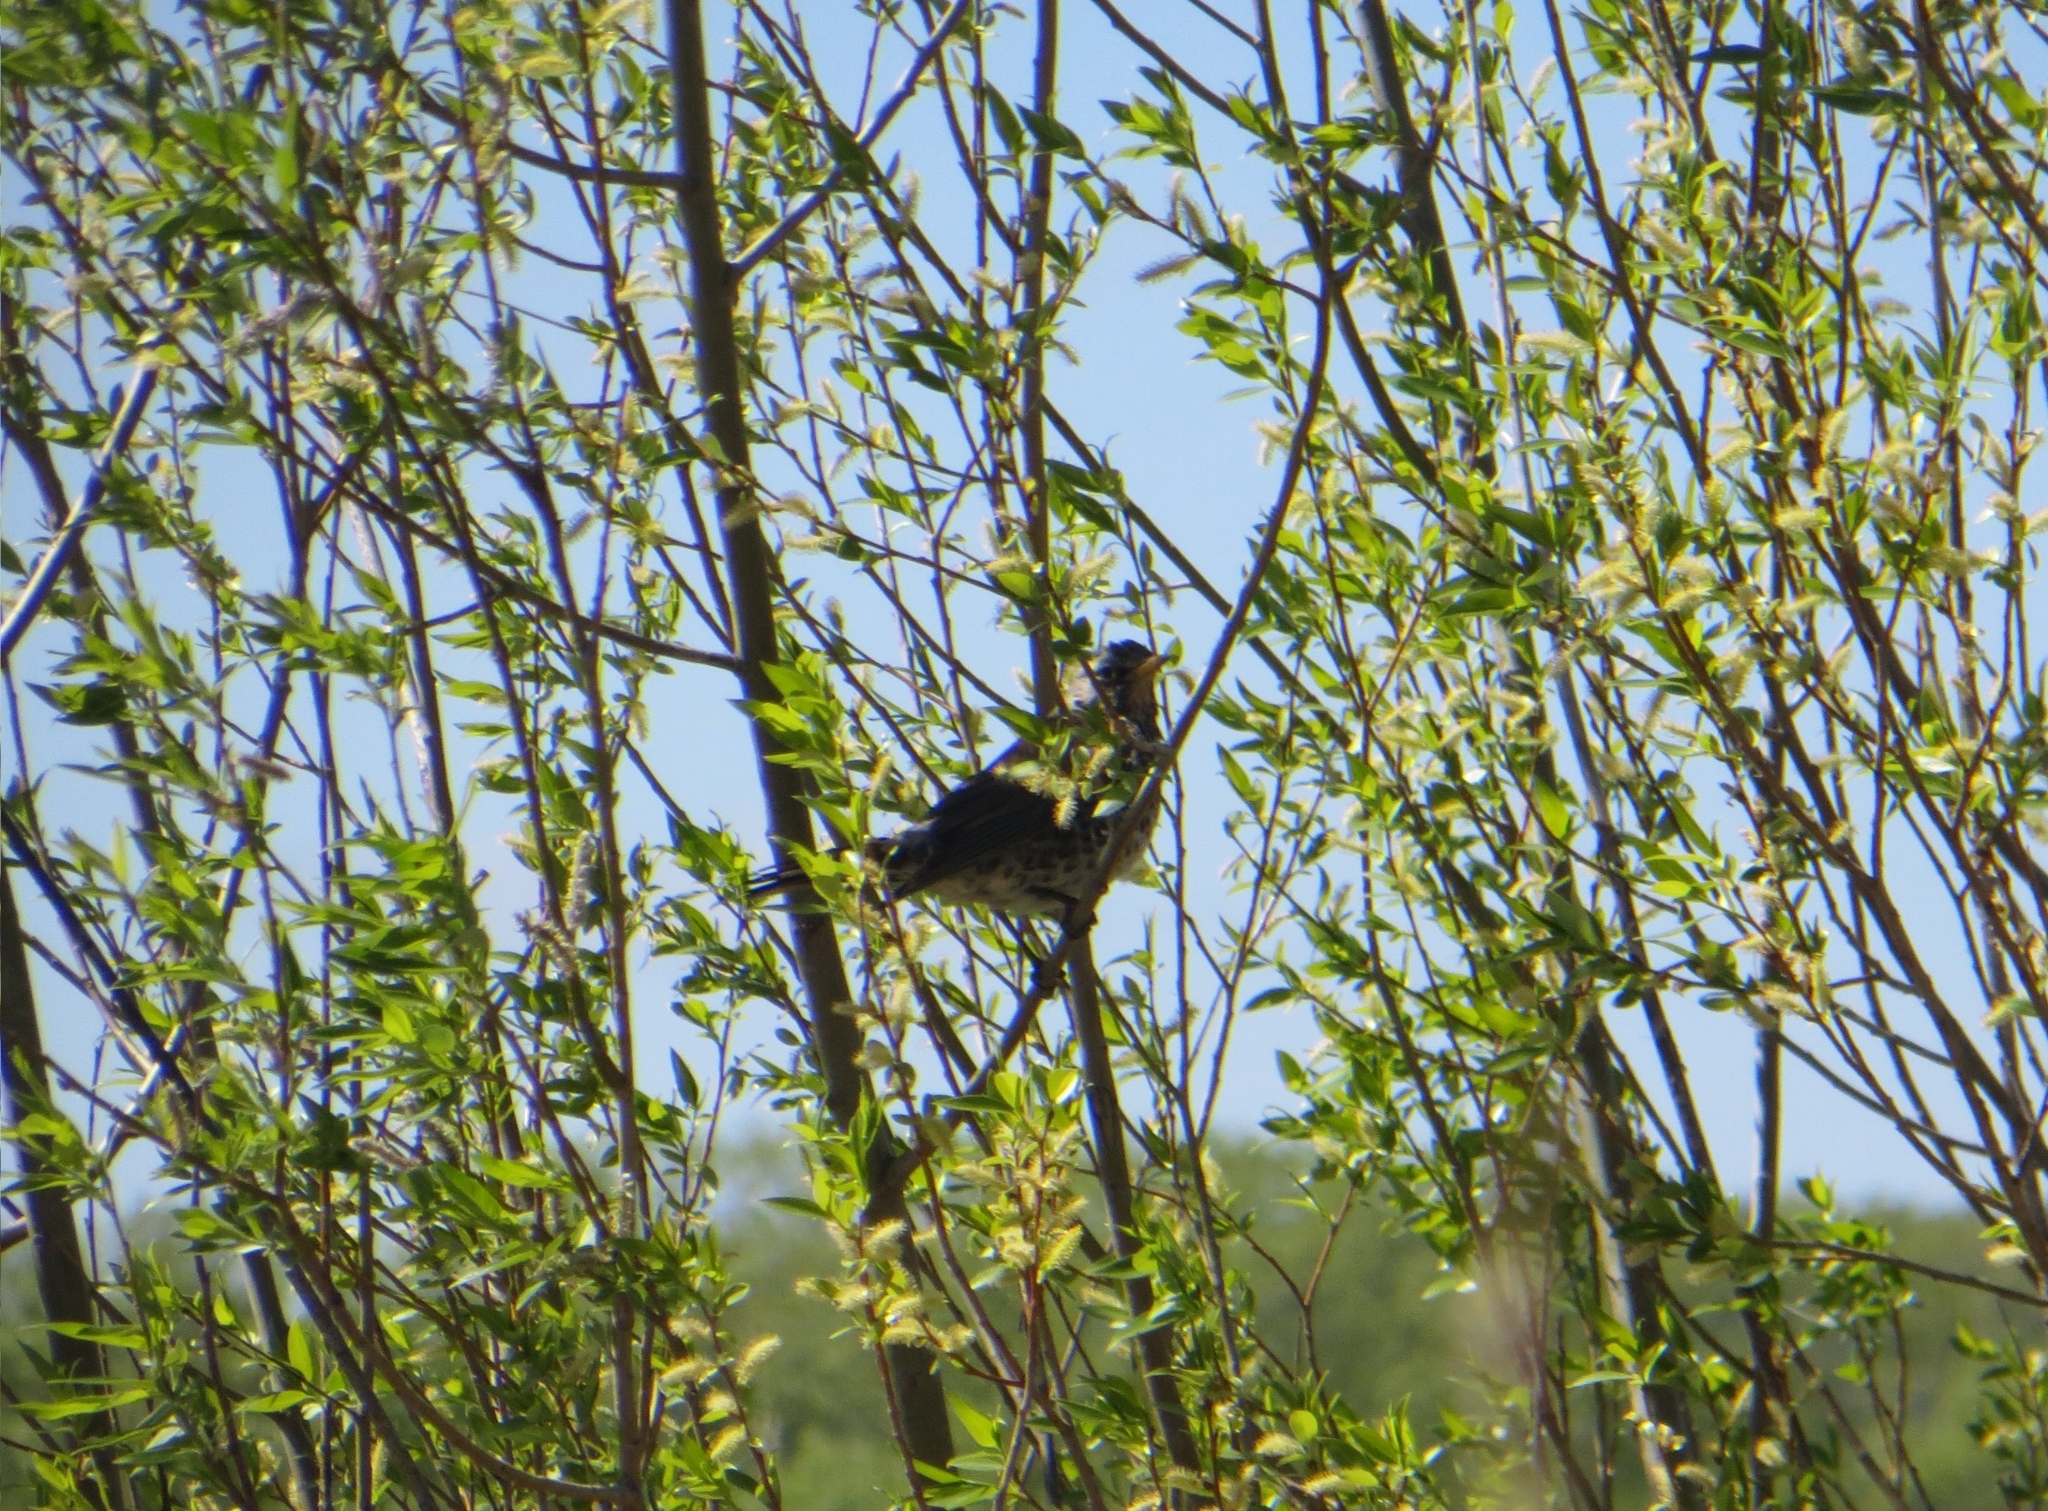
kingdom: Animalia
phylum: Chordata
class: Aves
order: Passeriformes
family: Turdidae
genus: Turdus
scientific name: Turdus pilaris
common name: Fieldfare
